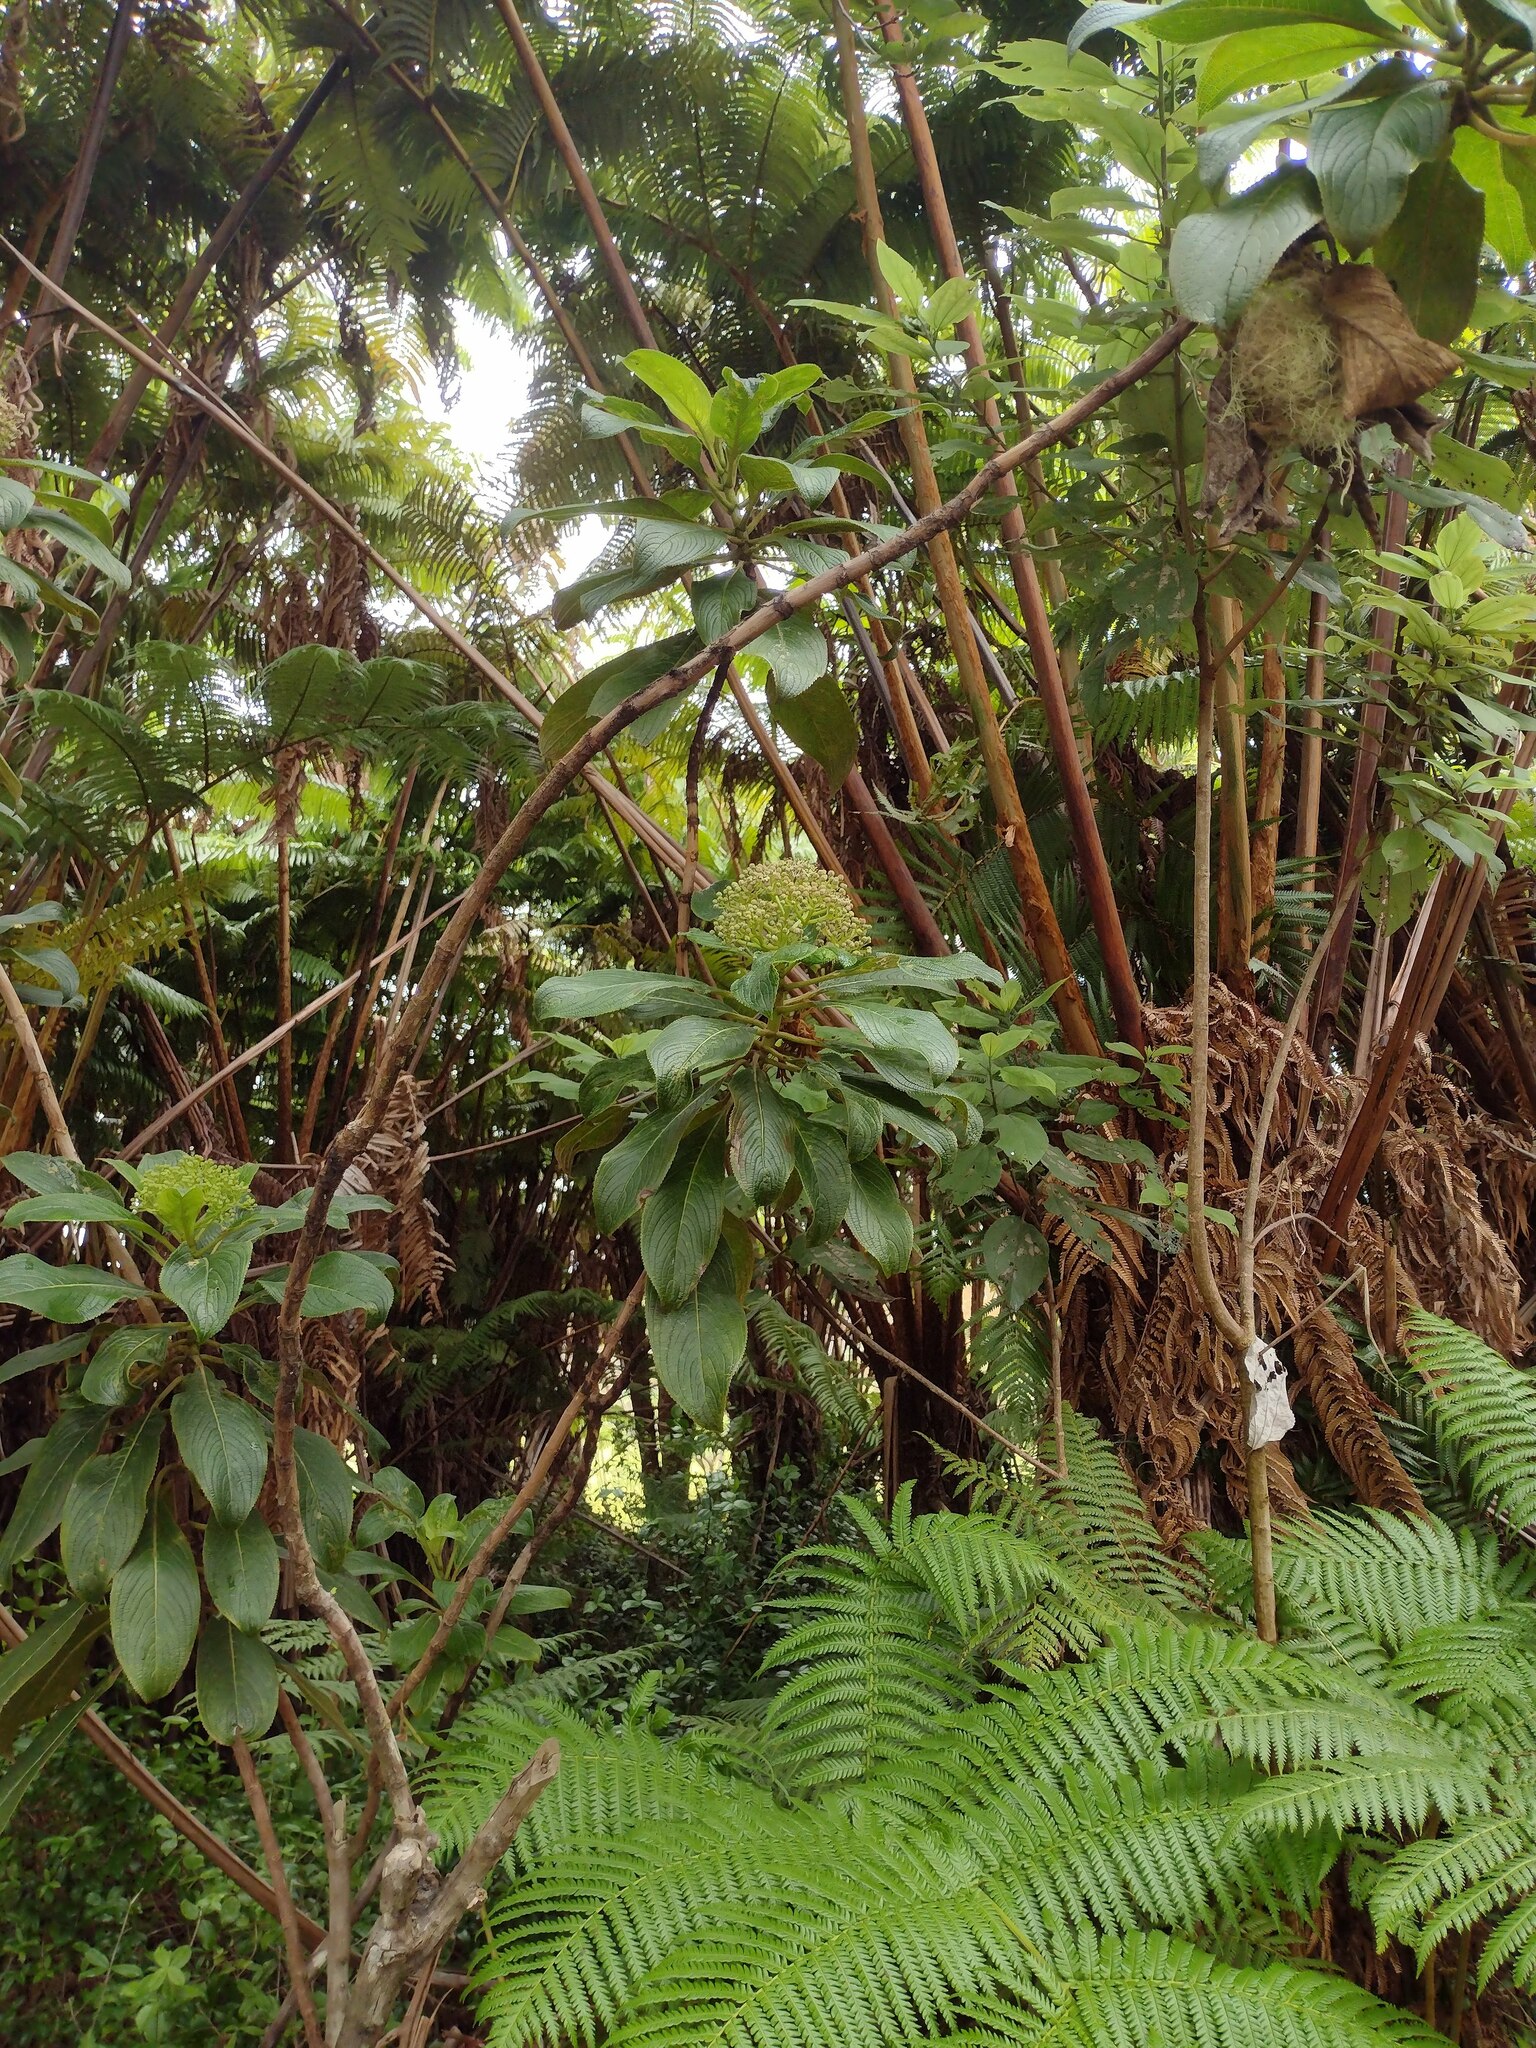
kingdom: Plantae
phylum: Tracheophyta
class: Magnoliopsida
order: Cornales
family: Hydrangeaceae
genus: Hydrangea
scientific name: Hydrangea arguta
